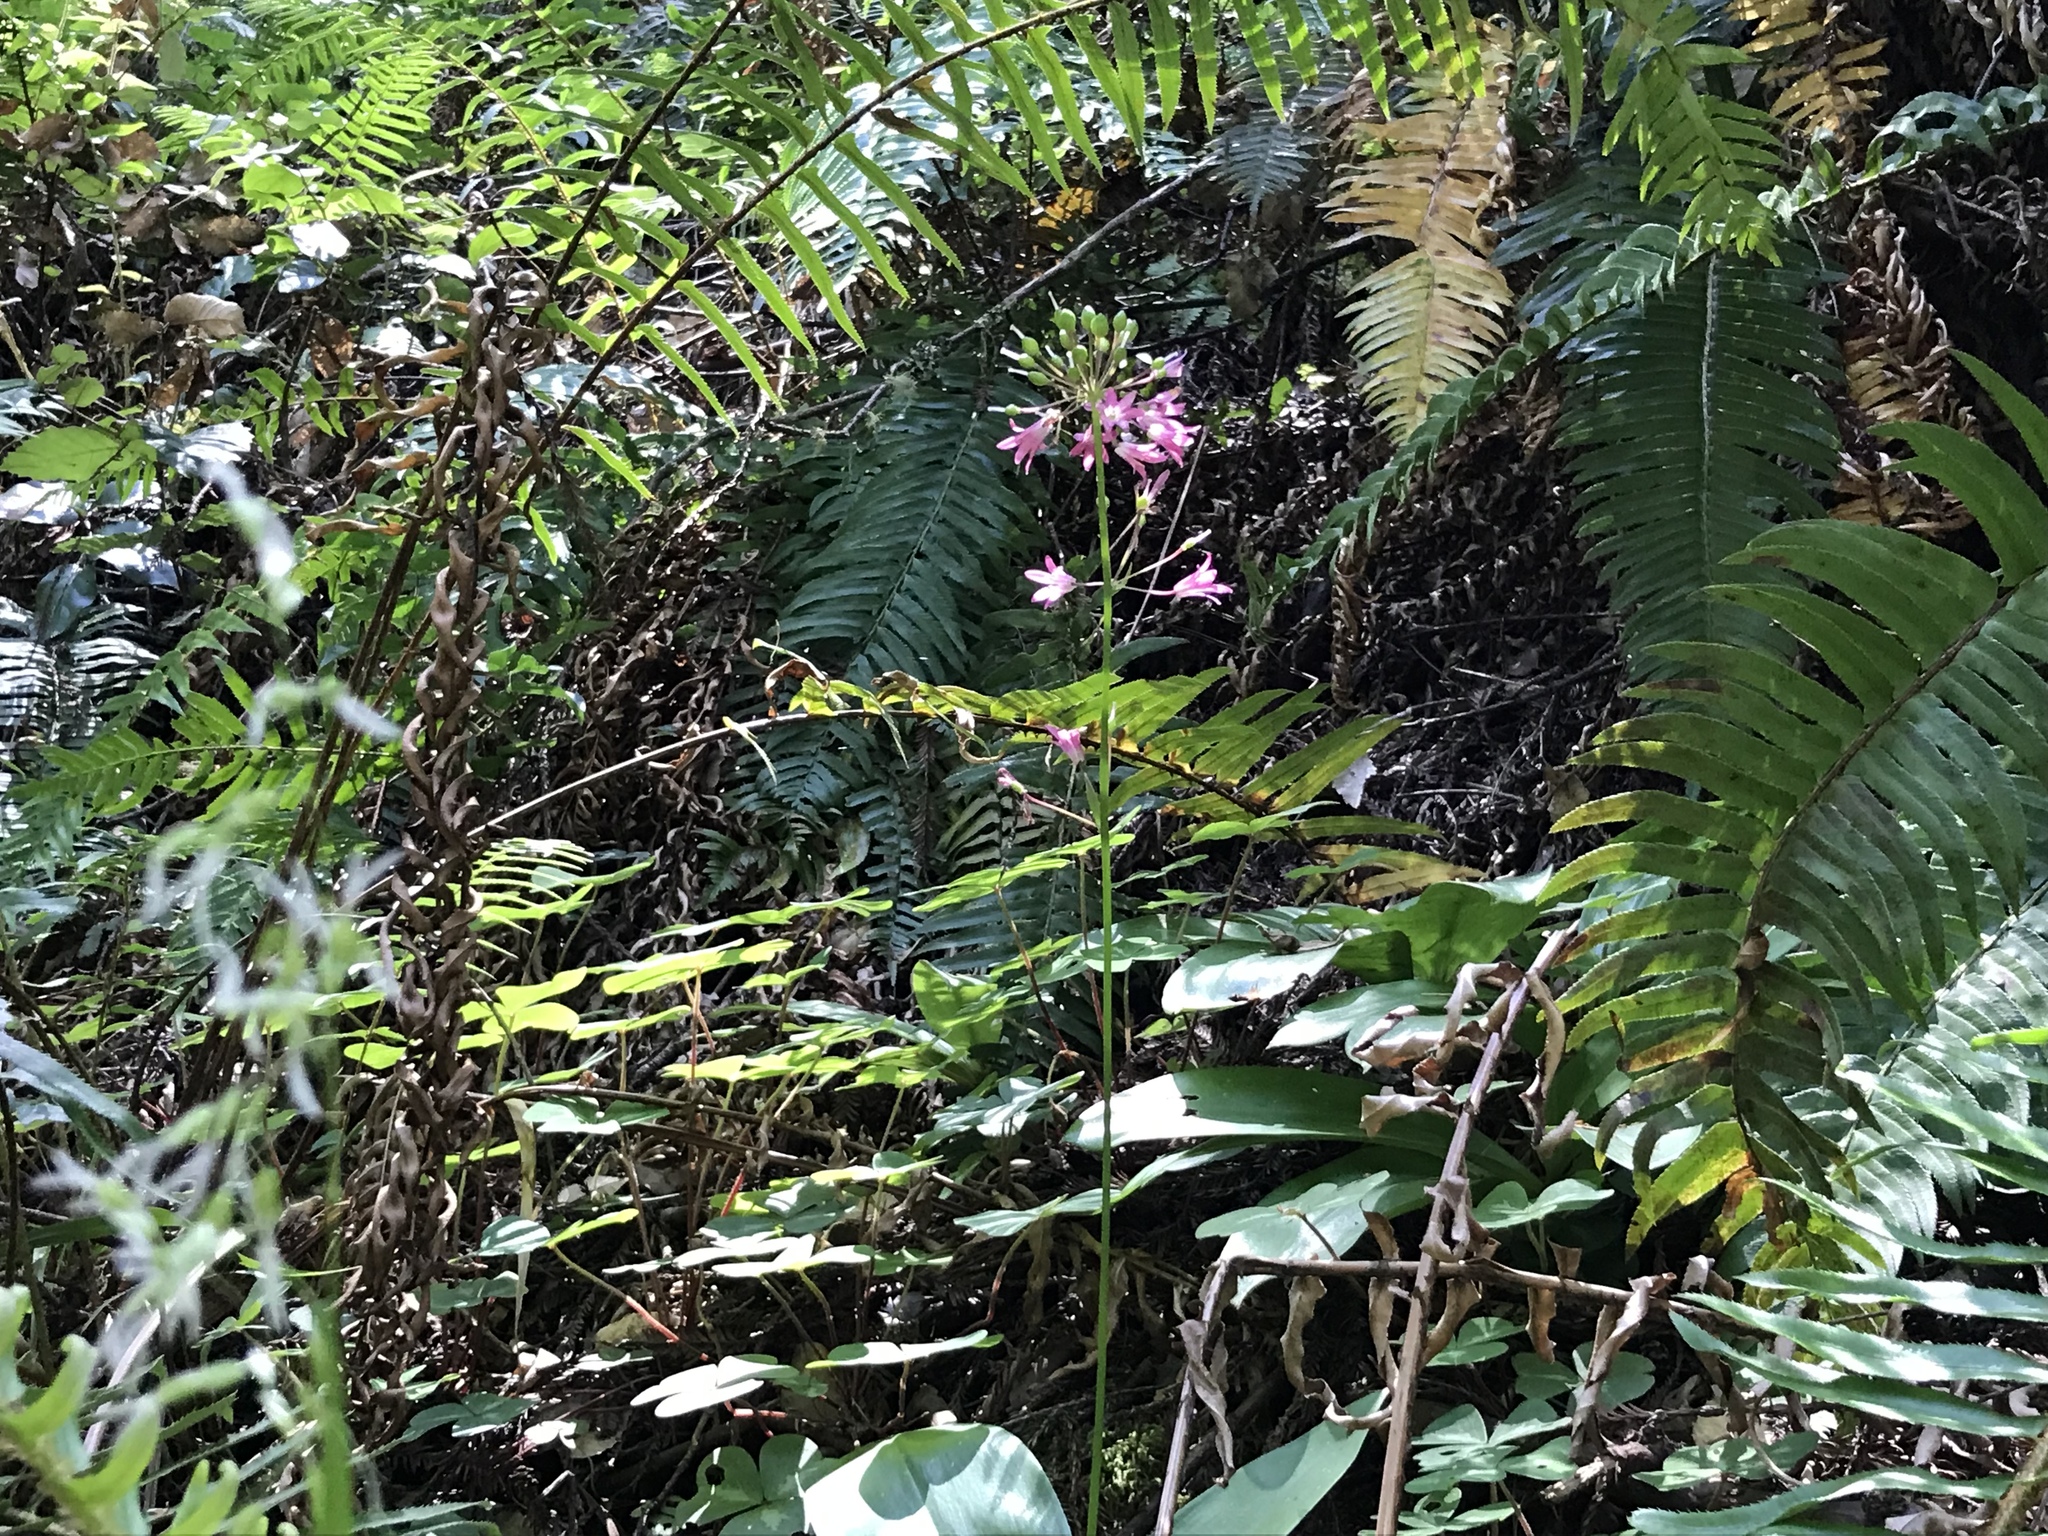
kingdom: Plantae
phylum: Tracheophyta
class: Liliopsida
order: Liliales
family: Liliaceae
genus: Clintonia
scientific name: Clintonia andrewsiana
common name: Red clintonia
